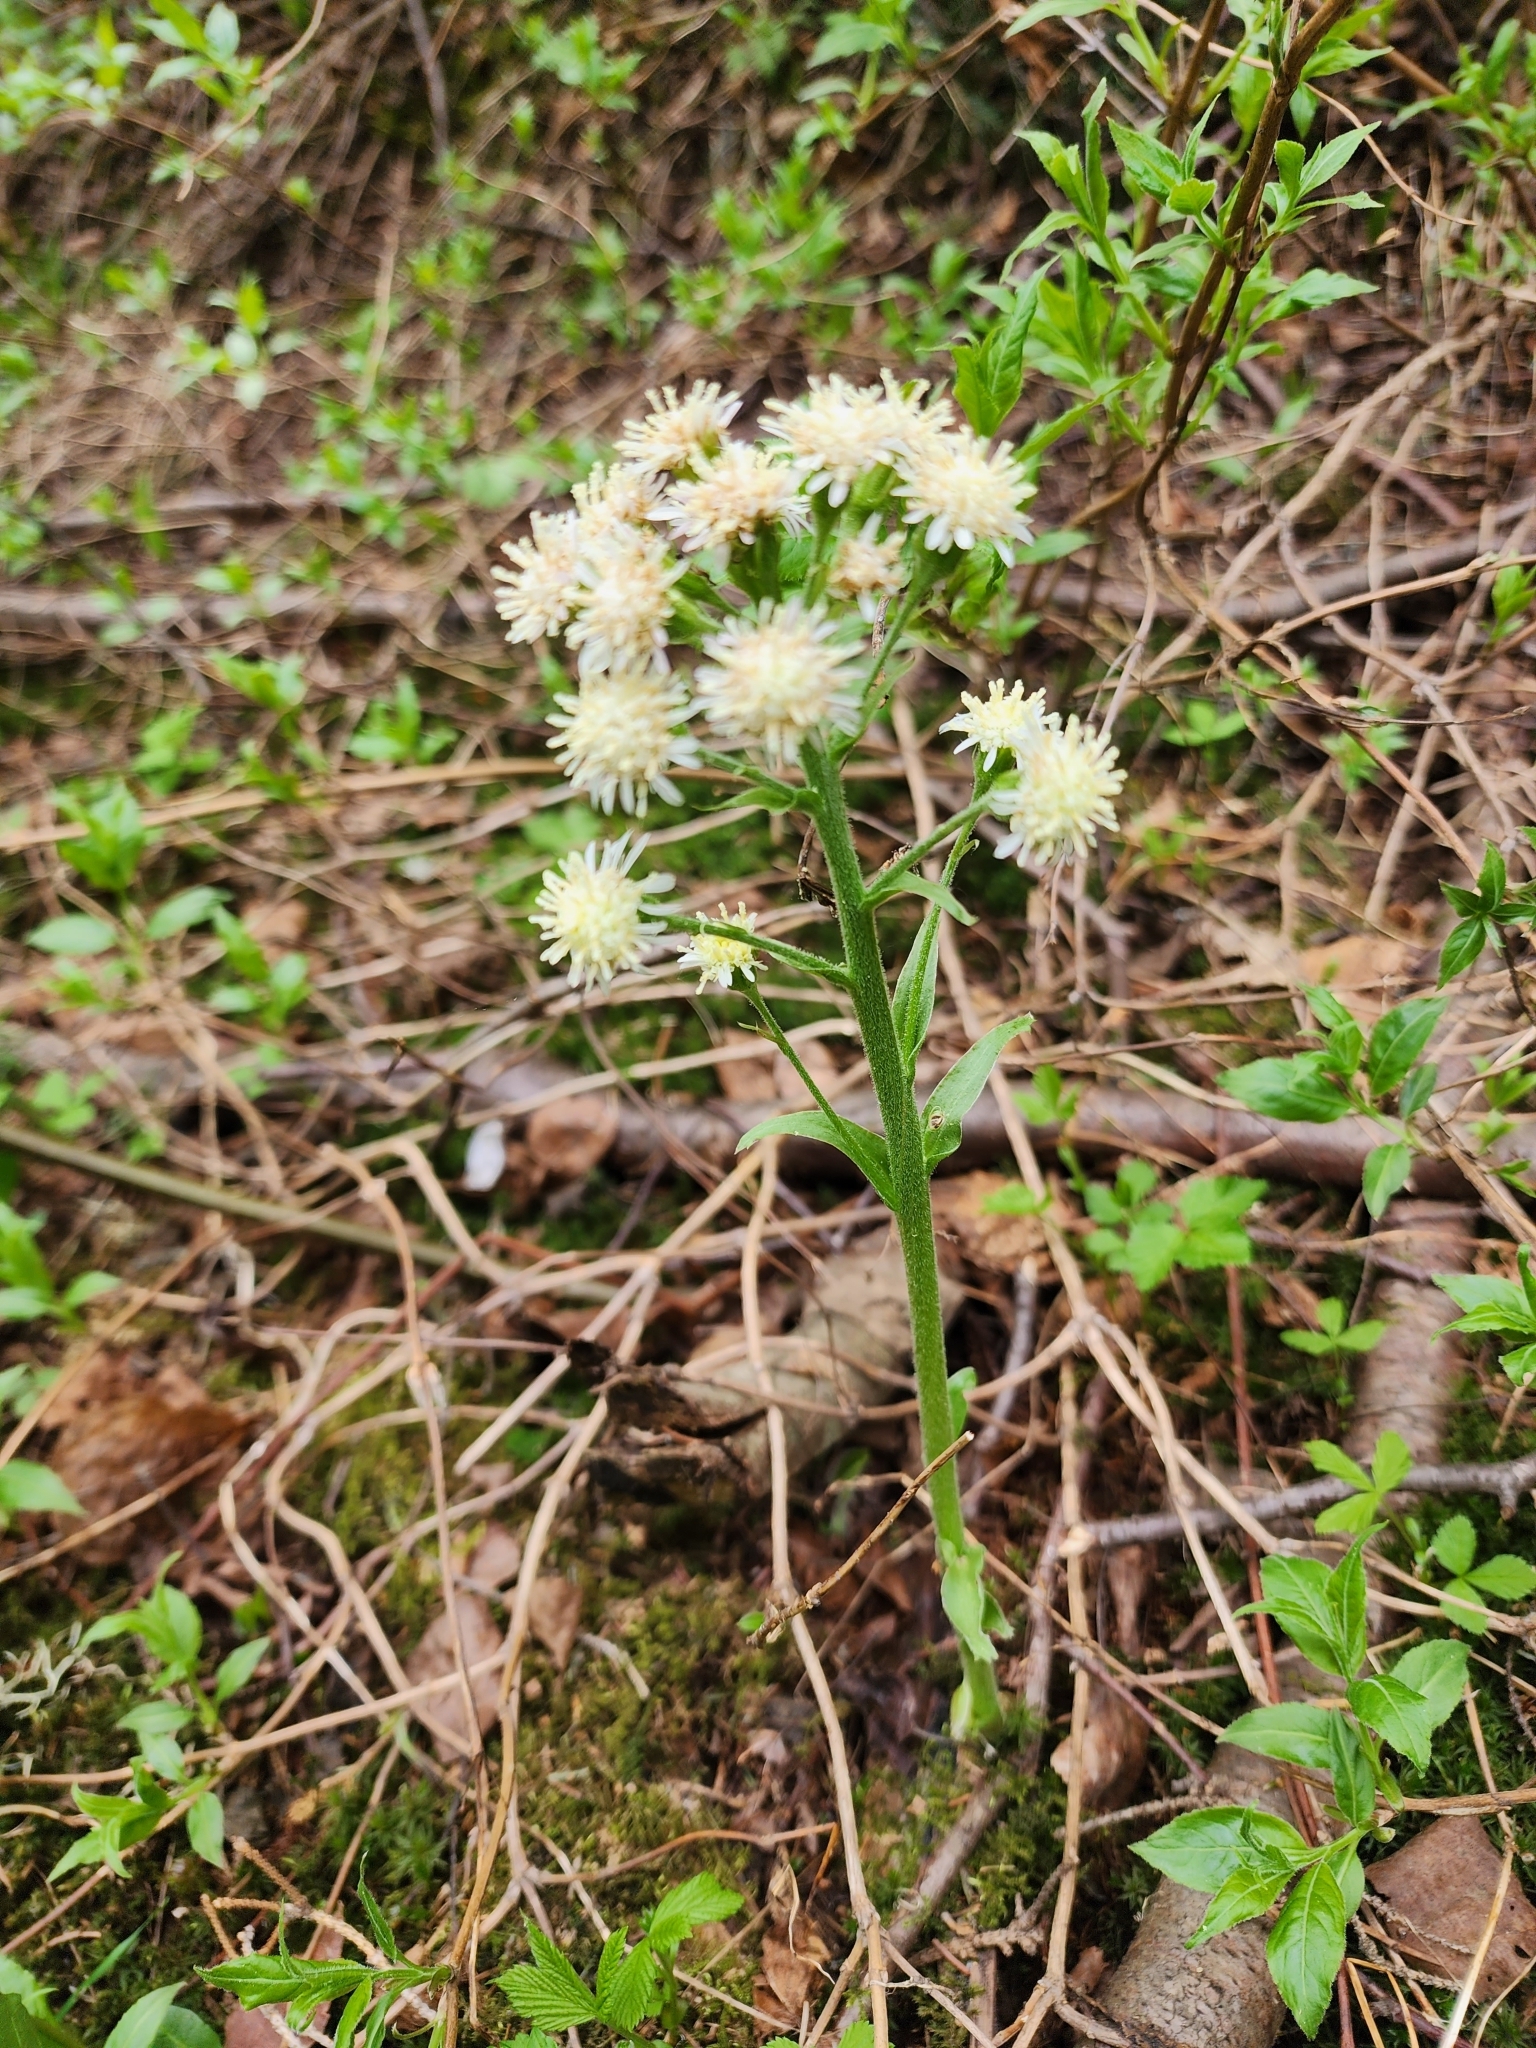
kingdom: Plantae
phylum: Tracheophyta
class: Magnoliopsida
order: Asterales
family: Asteraceae
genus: Petasites
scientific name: Petasites frigidus
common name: Arctic butterbur
